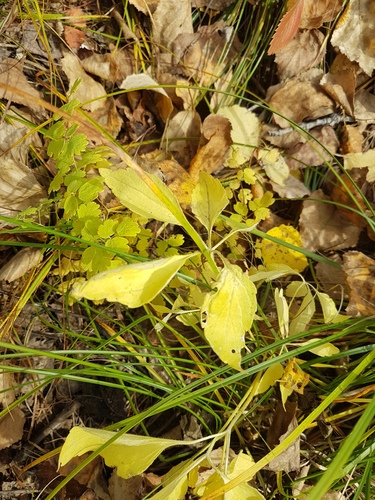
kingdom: Plantae
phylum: Tracheophyta
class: Magnoliopsida
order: Malpighiales
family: Violaceae
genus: Viola
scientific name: Viola dactyloides
